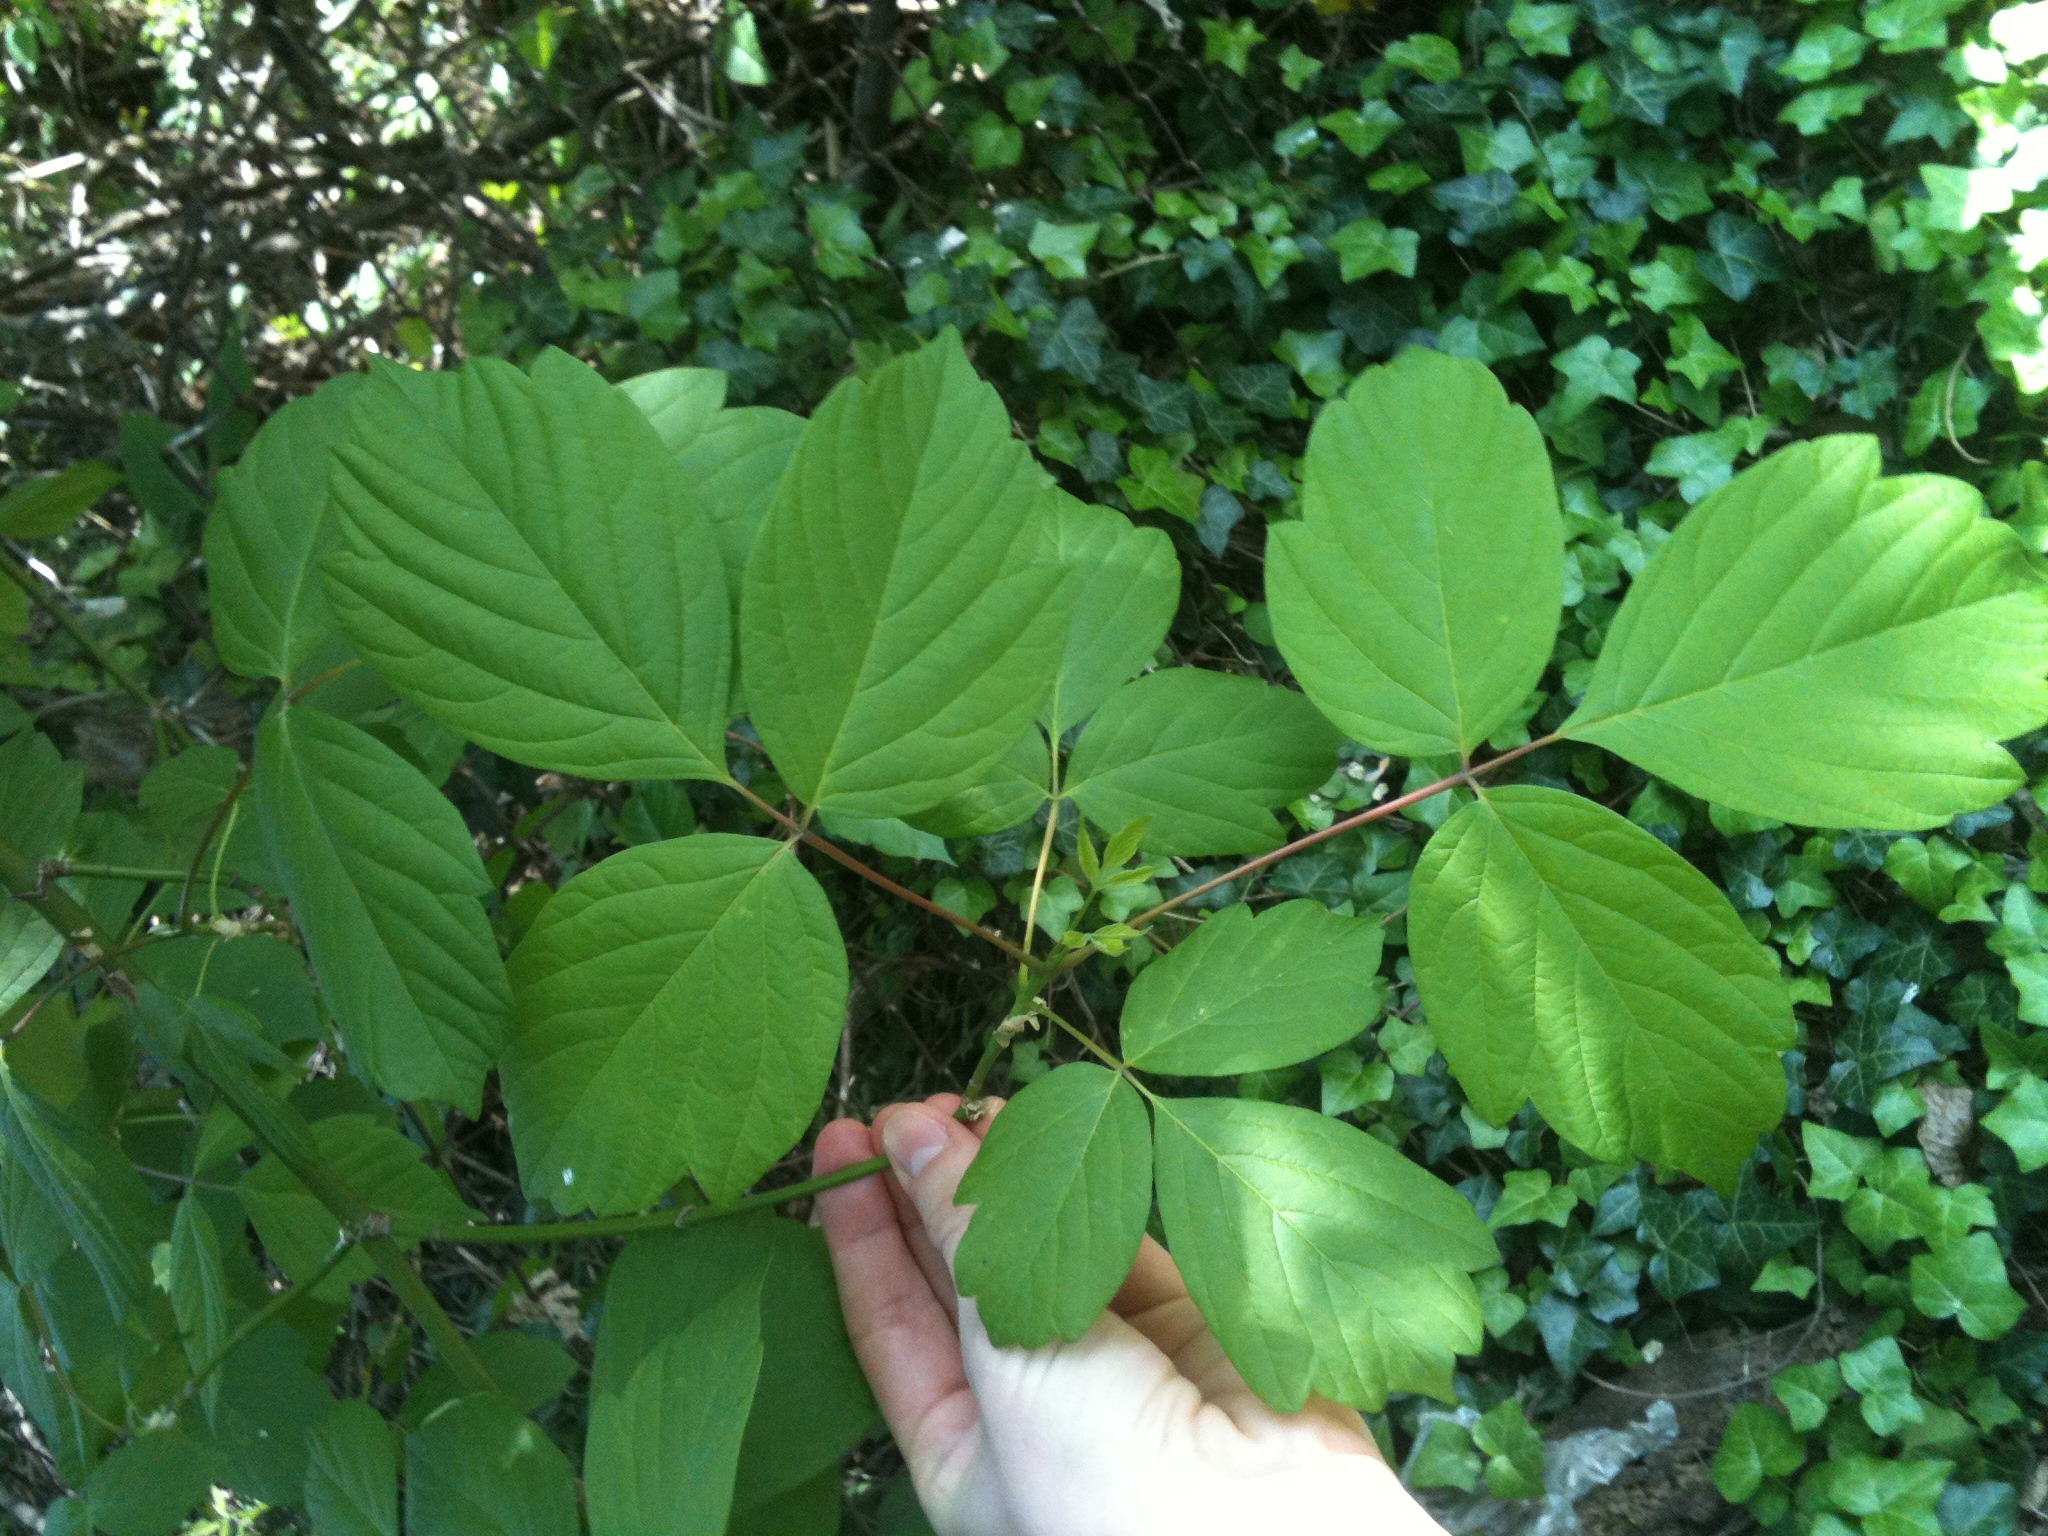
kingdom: Plantae
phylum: Tracheophyta
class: Magnoliopsida
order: Sapindales
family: Sapindaceae
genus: Acer
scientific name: Acer negundo
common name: Ashleaf maple
